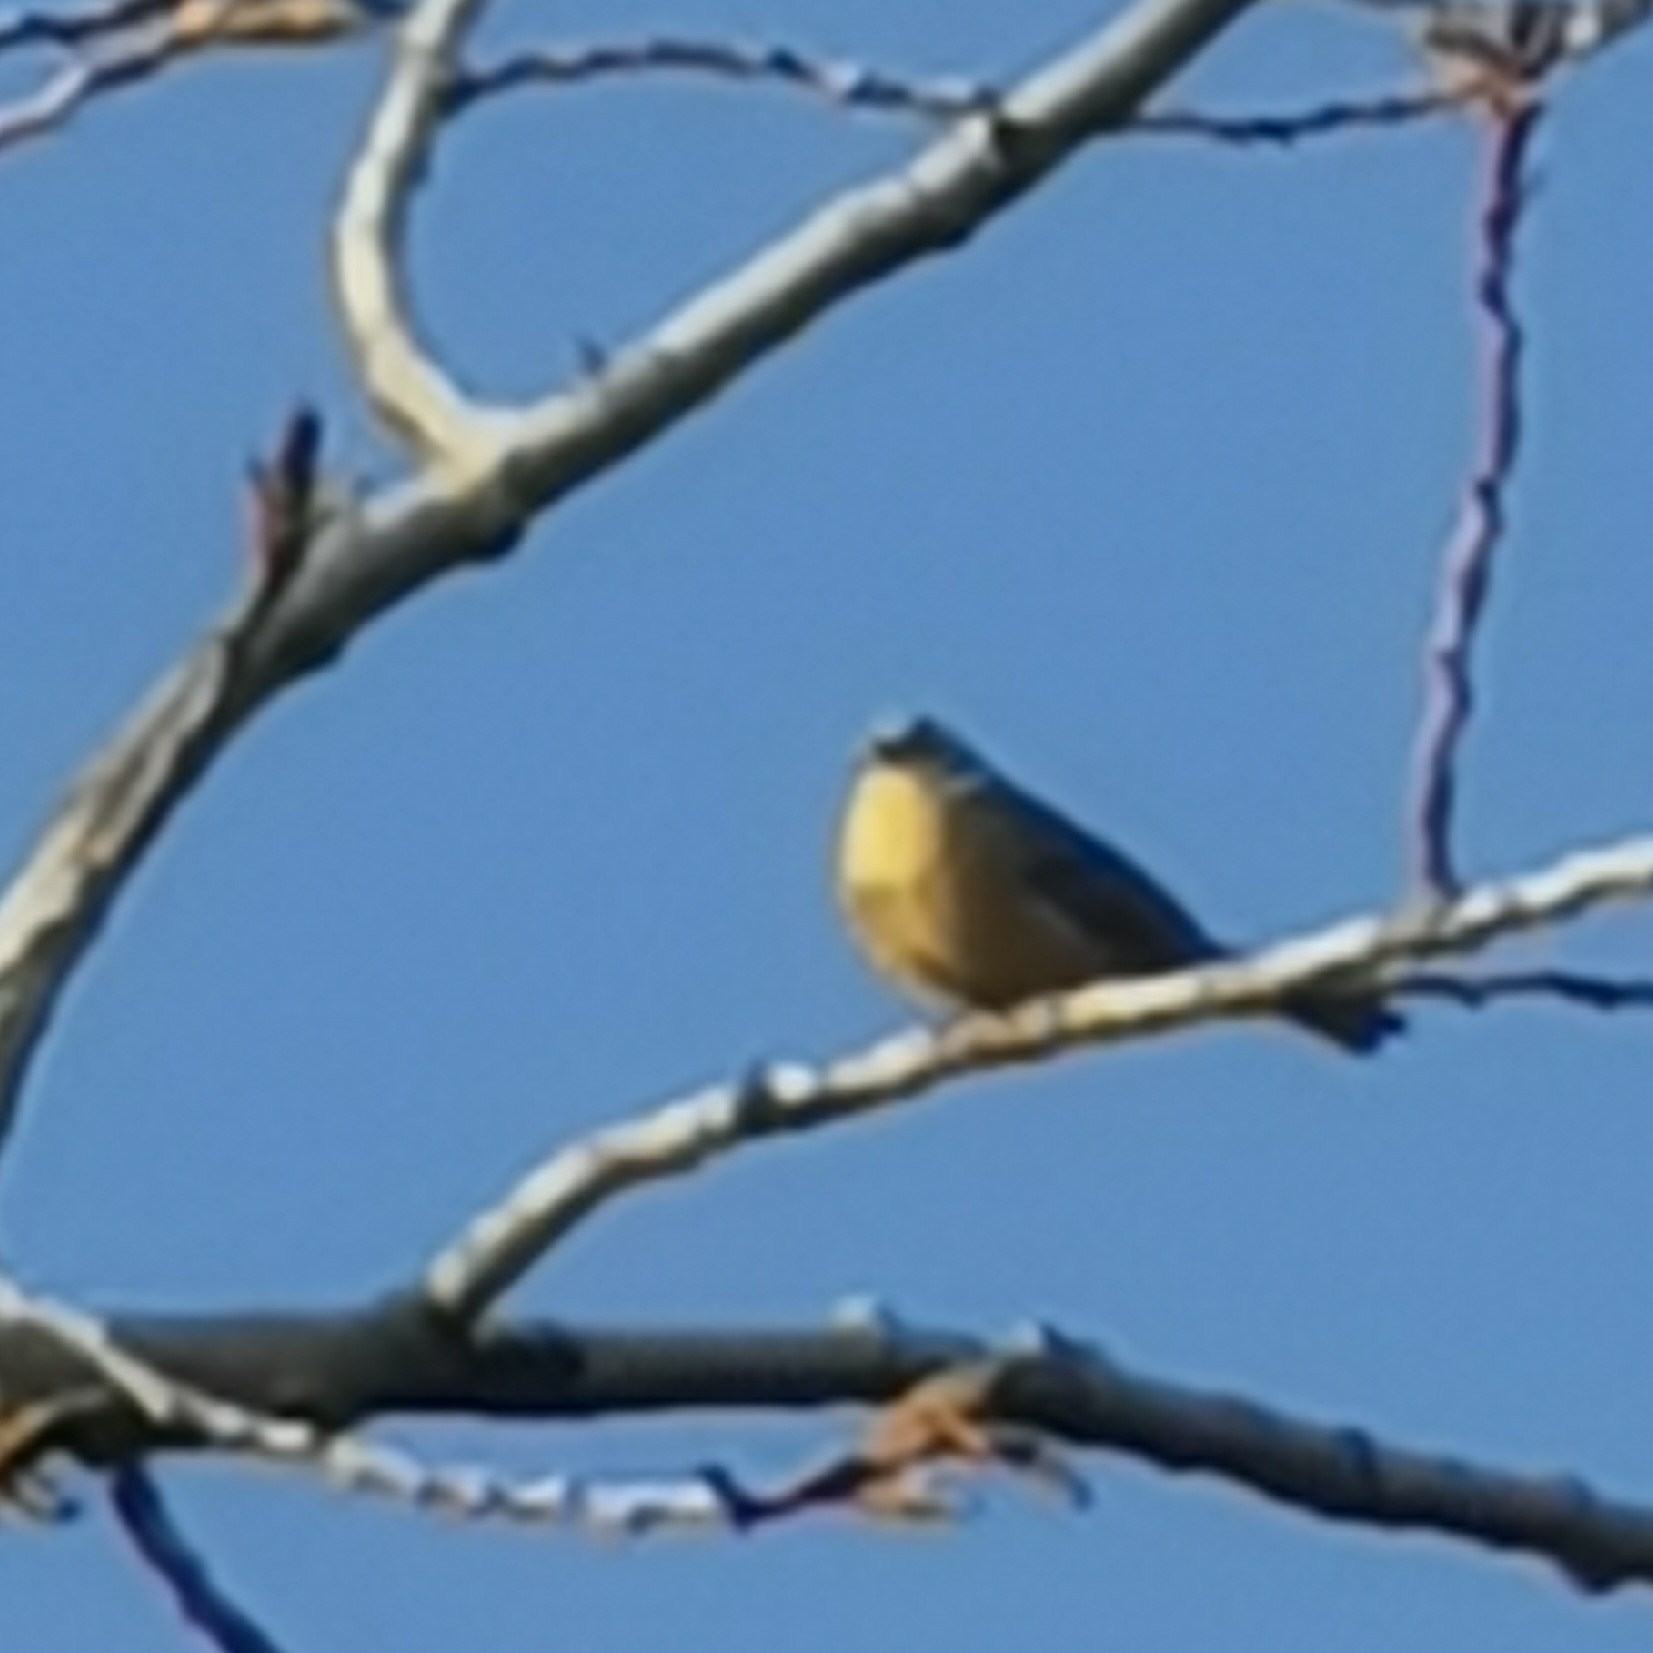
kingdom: Animalia
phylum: Chordata
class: Aves
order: Passeriformes
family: Emberizidae
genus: Emberiza
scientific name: Emberiza citrinella
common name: Yellowhammer
